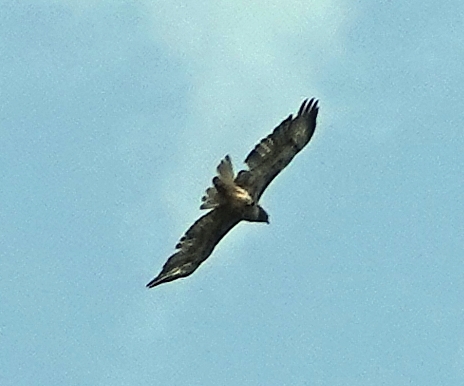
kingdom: Animalia
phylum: Chordata
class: Aves
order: Accipitriformes
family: Accipitridae
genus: Buteo
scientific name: Buteo jamaicensis
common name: Red-tailed hawk
